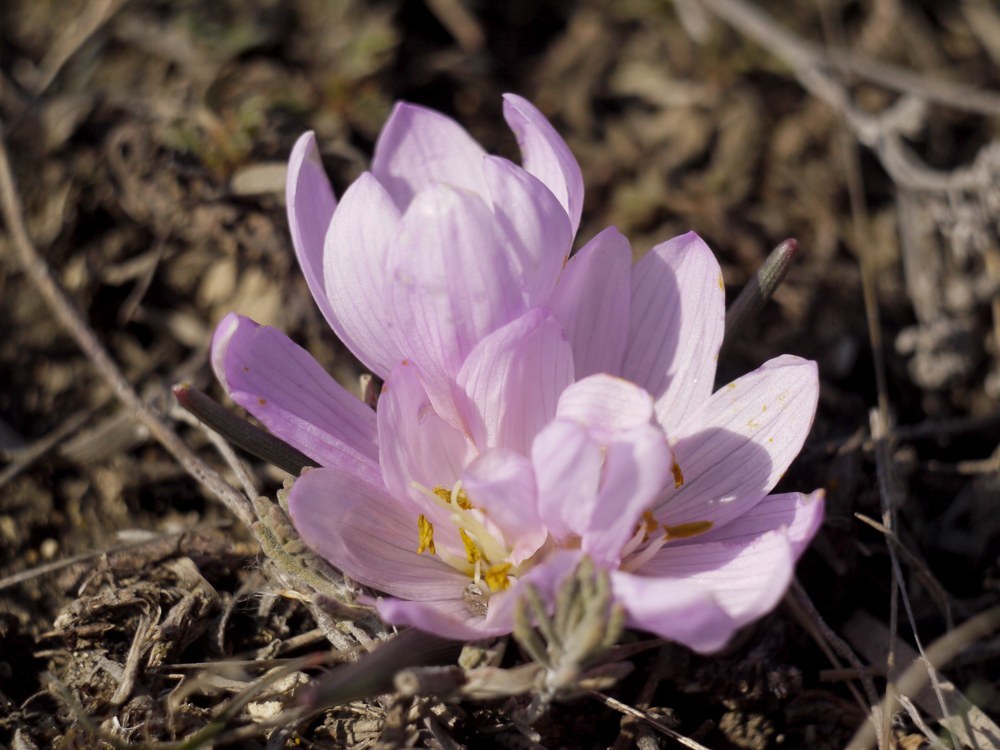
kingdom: Plantae
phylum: Tracheophyta
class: Liliopsida
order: Liliales
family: Colchicaceae
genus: Colchicum
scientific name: Colchicum bulbocodium
